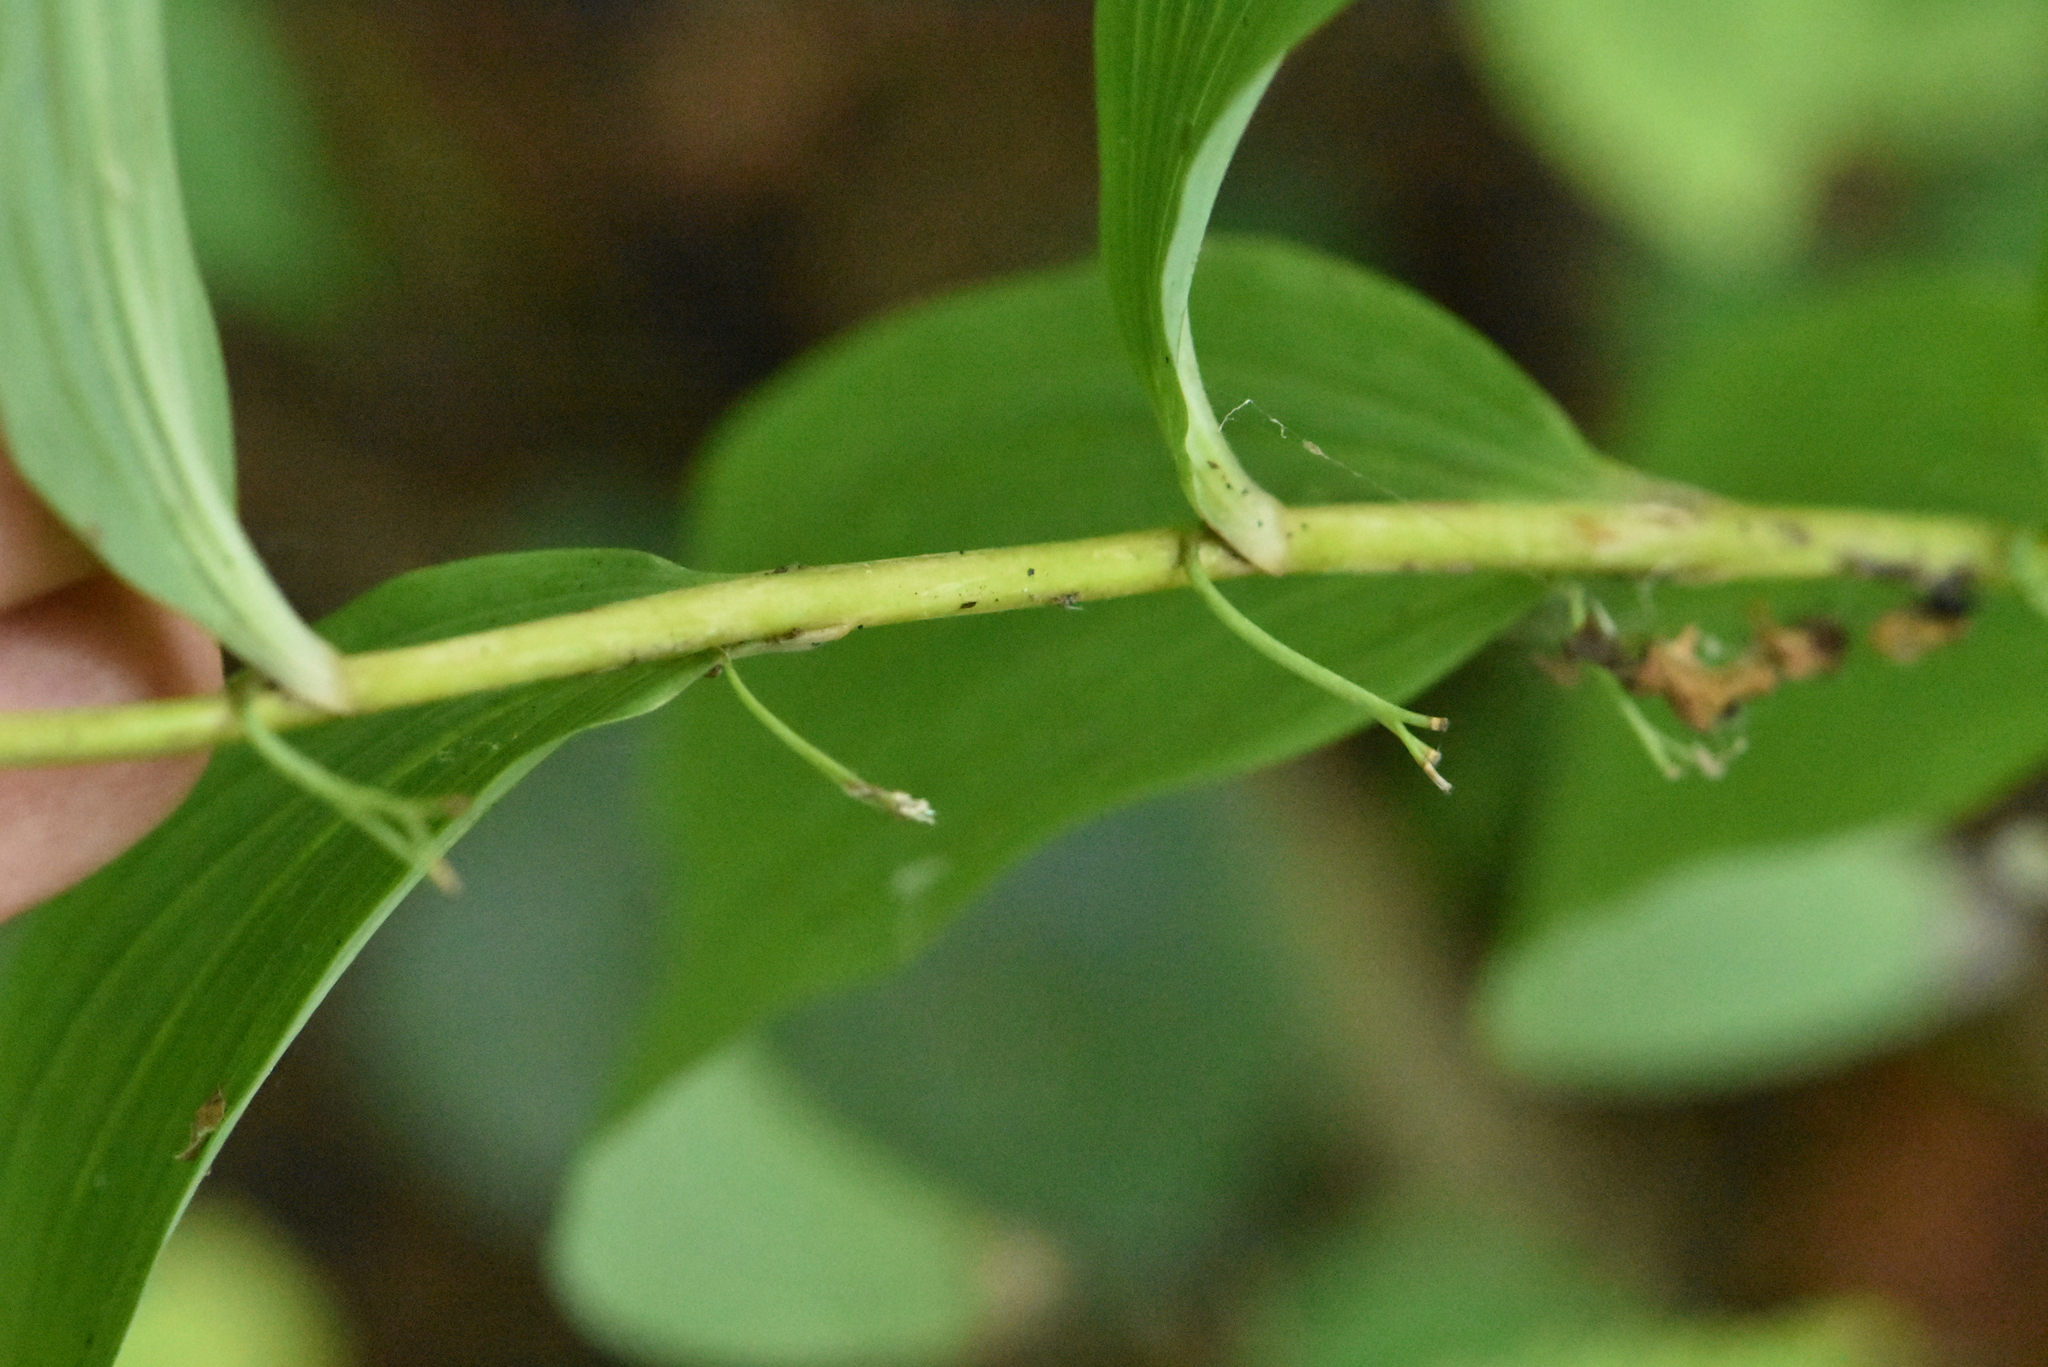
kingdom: Plantae
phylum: Tracheophyta
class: Liliopsida
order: Asparagales
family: Asparagaceae
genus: Polygonatum
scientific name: Polygonatum multiflorum
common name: Solomon's-seal
